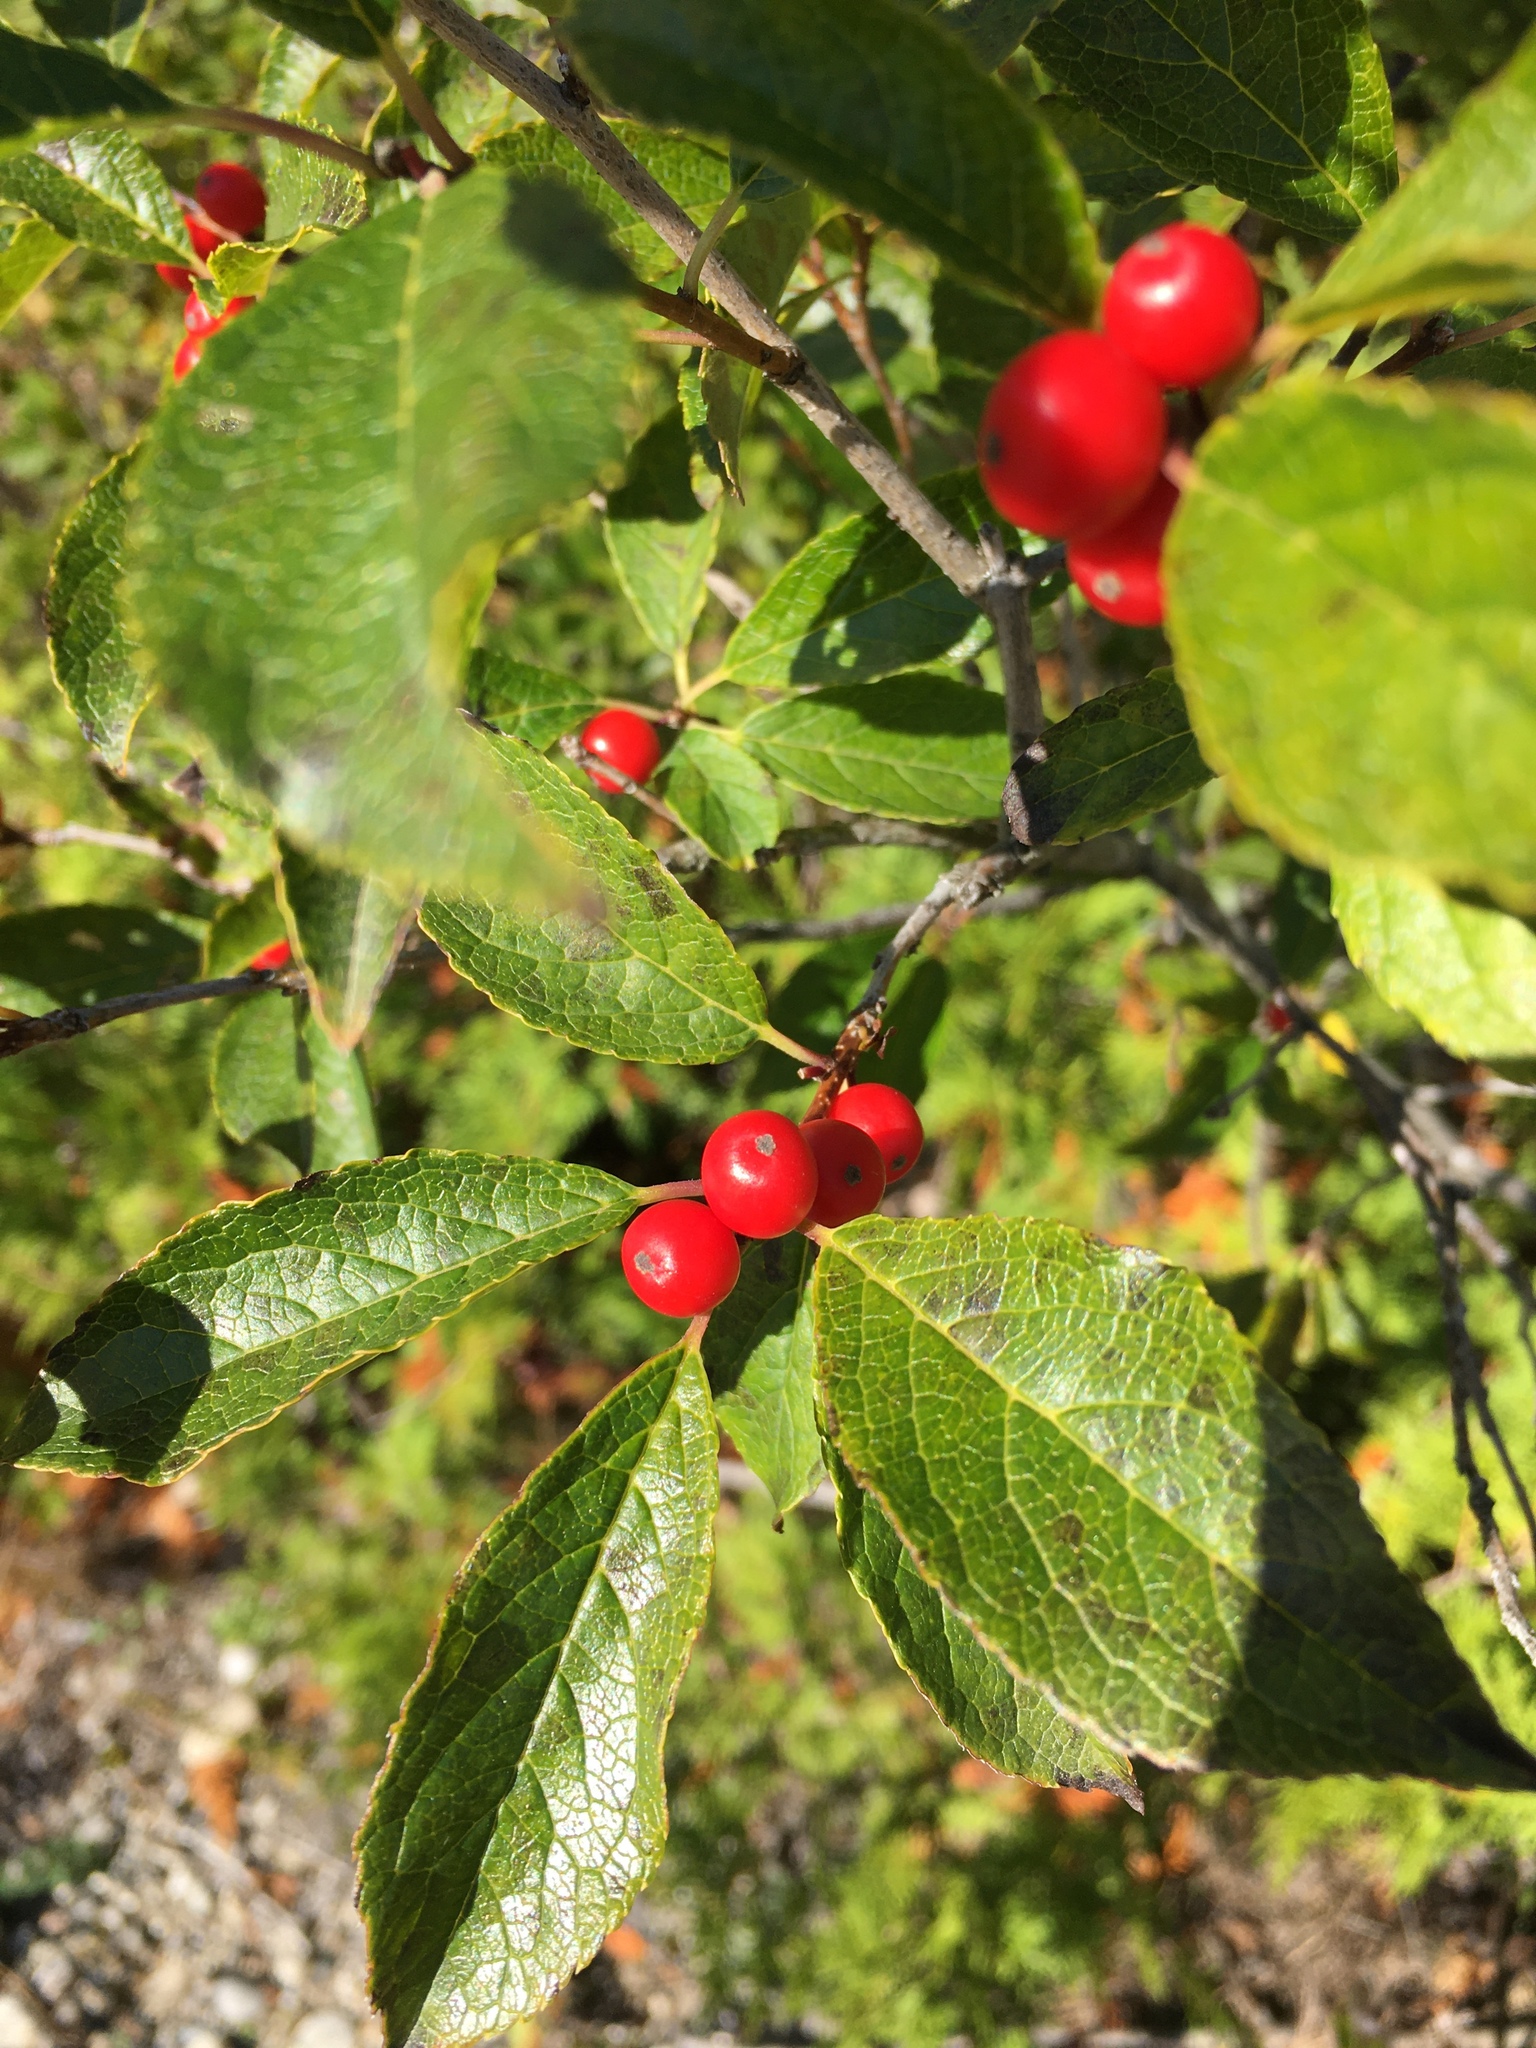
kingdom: Plantae
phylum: Tracheophyta
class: Magnoliopsida
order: Aquifoliales
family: Aquifoliaceae
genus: Ilex
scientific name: Ilex verticillata
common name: Virginia winterberry
